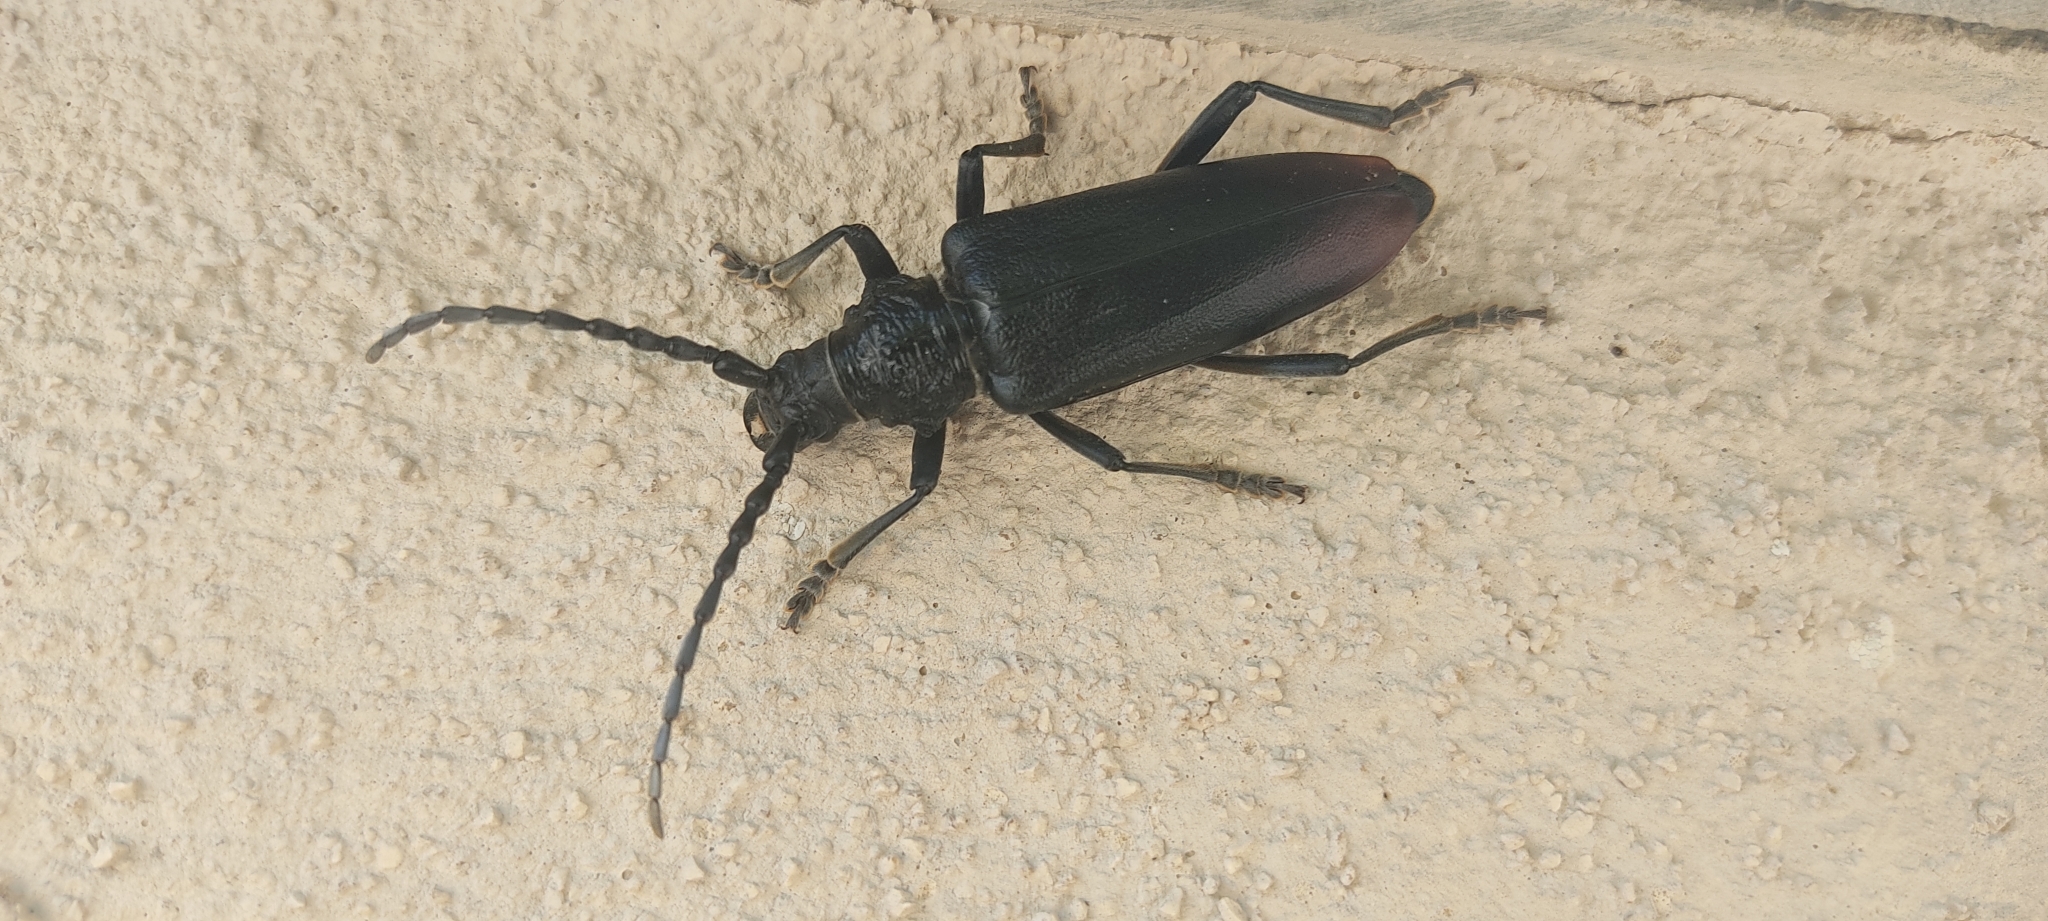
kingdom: Animalia
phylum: Arthropoda
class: Insecta
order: Coleoptera
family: Cerambycidae
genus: Cerambyx
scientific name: Cerambyx miles
